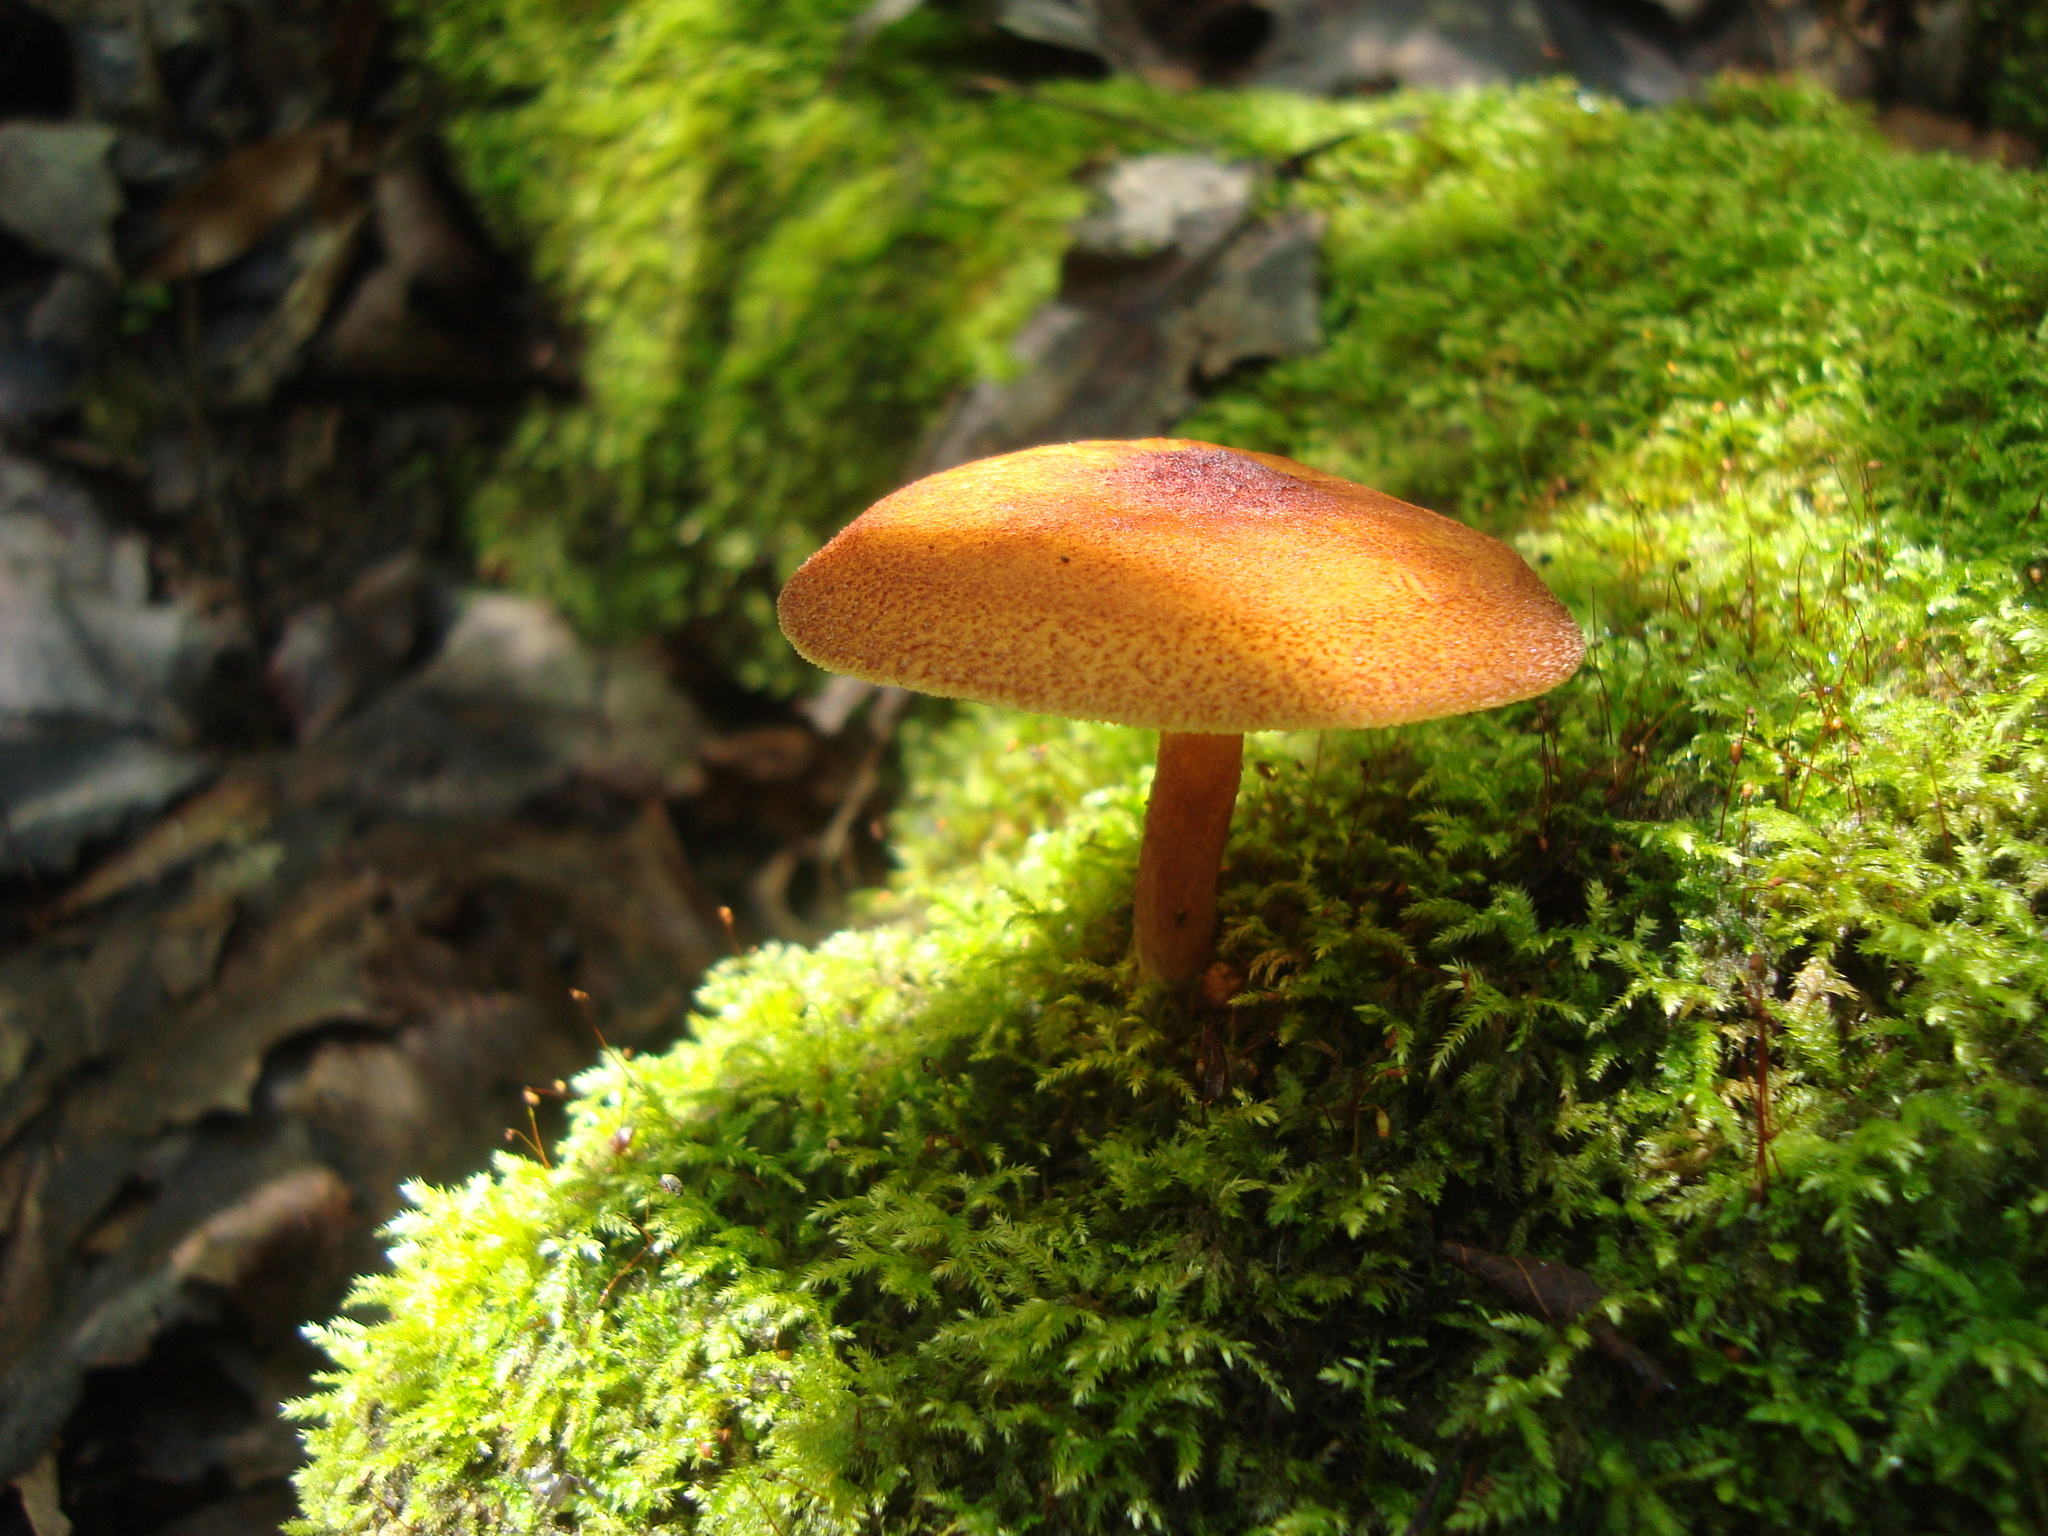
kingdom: Fungi
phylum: Basidiomycota
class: Agaricomycetes
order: Agaricales
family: Tricholomataceae
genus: Tricholomopsis
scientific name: Tricholomopsis rutilans
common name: Plums and custard
